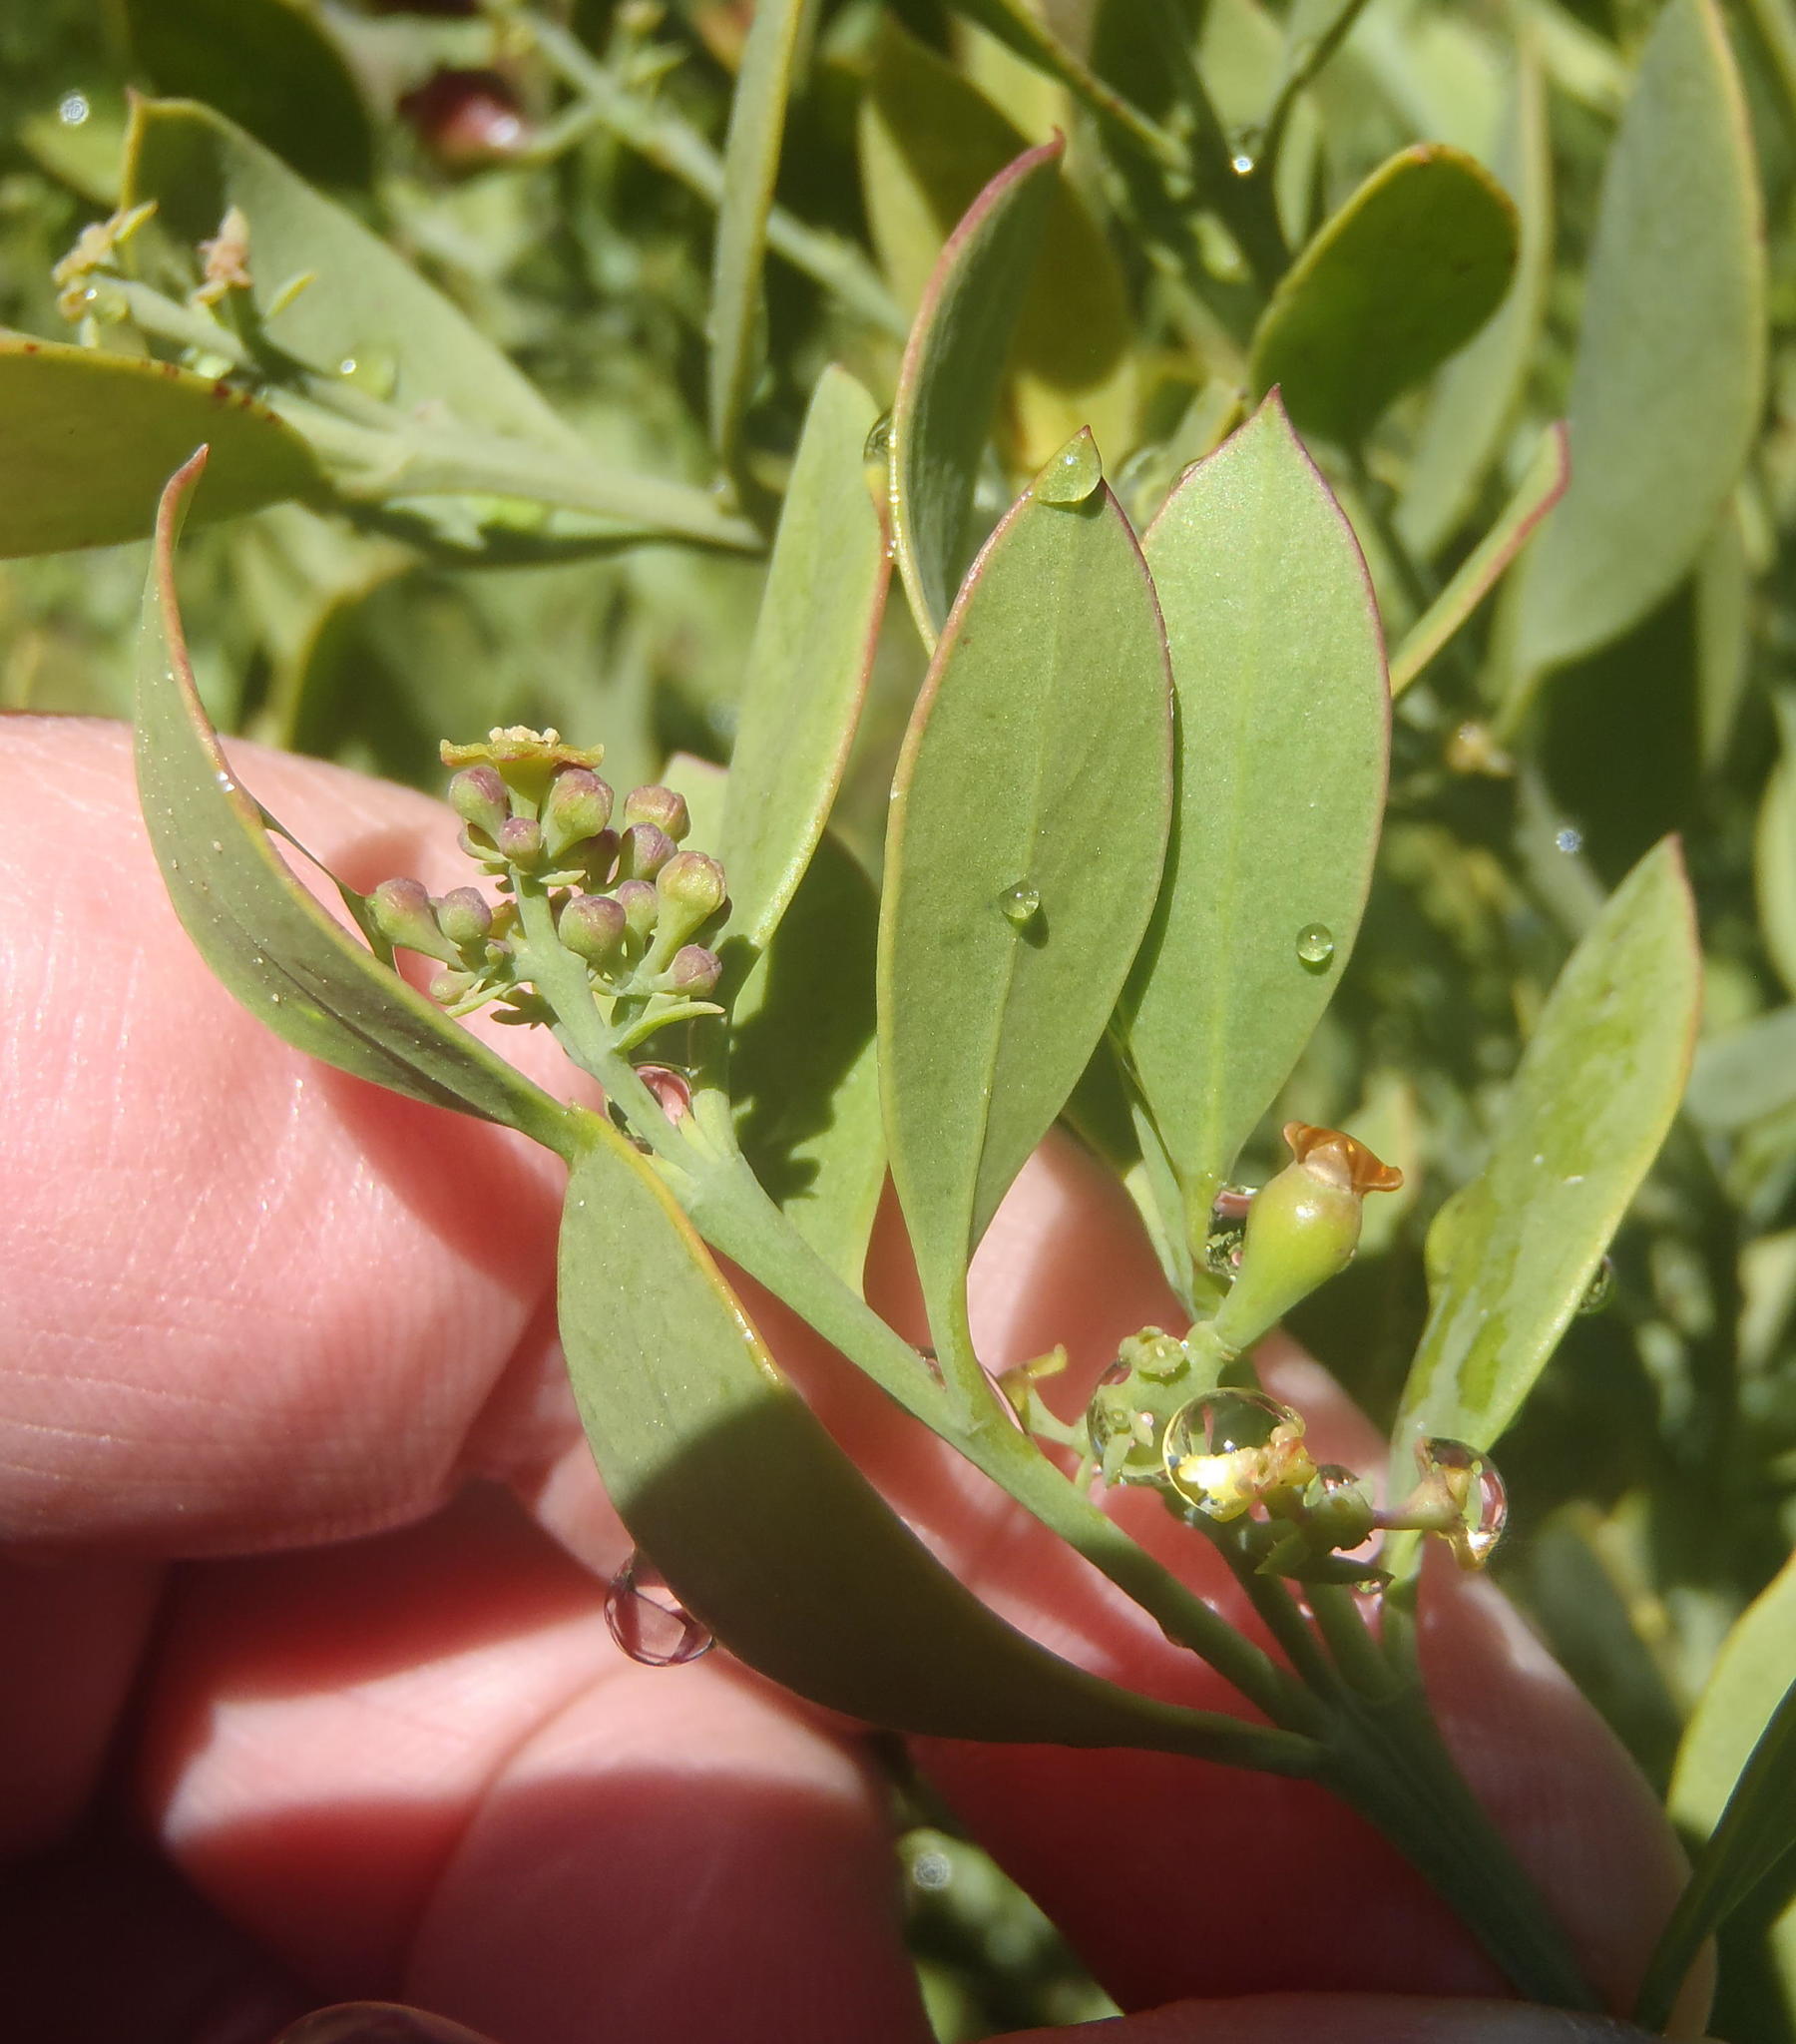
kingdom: Plantae
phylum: Tracheophyta
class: Magnoliopsida
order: Santalales
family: Santalaceae
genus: Osyris
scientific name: Osyris compressa
